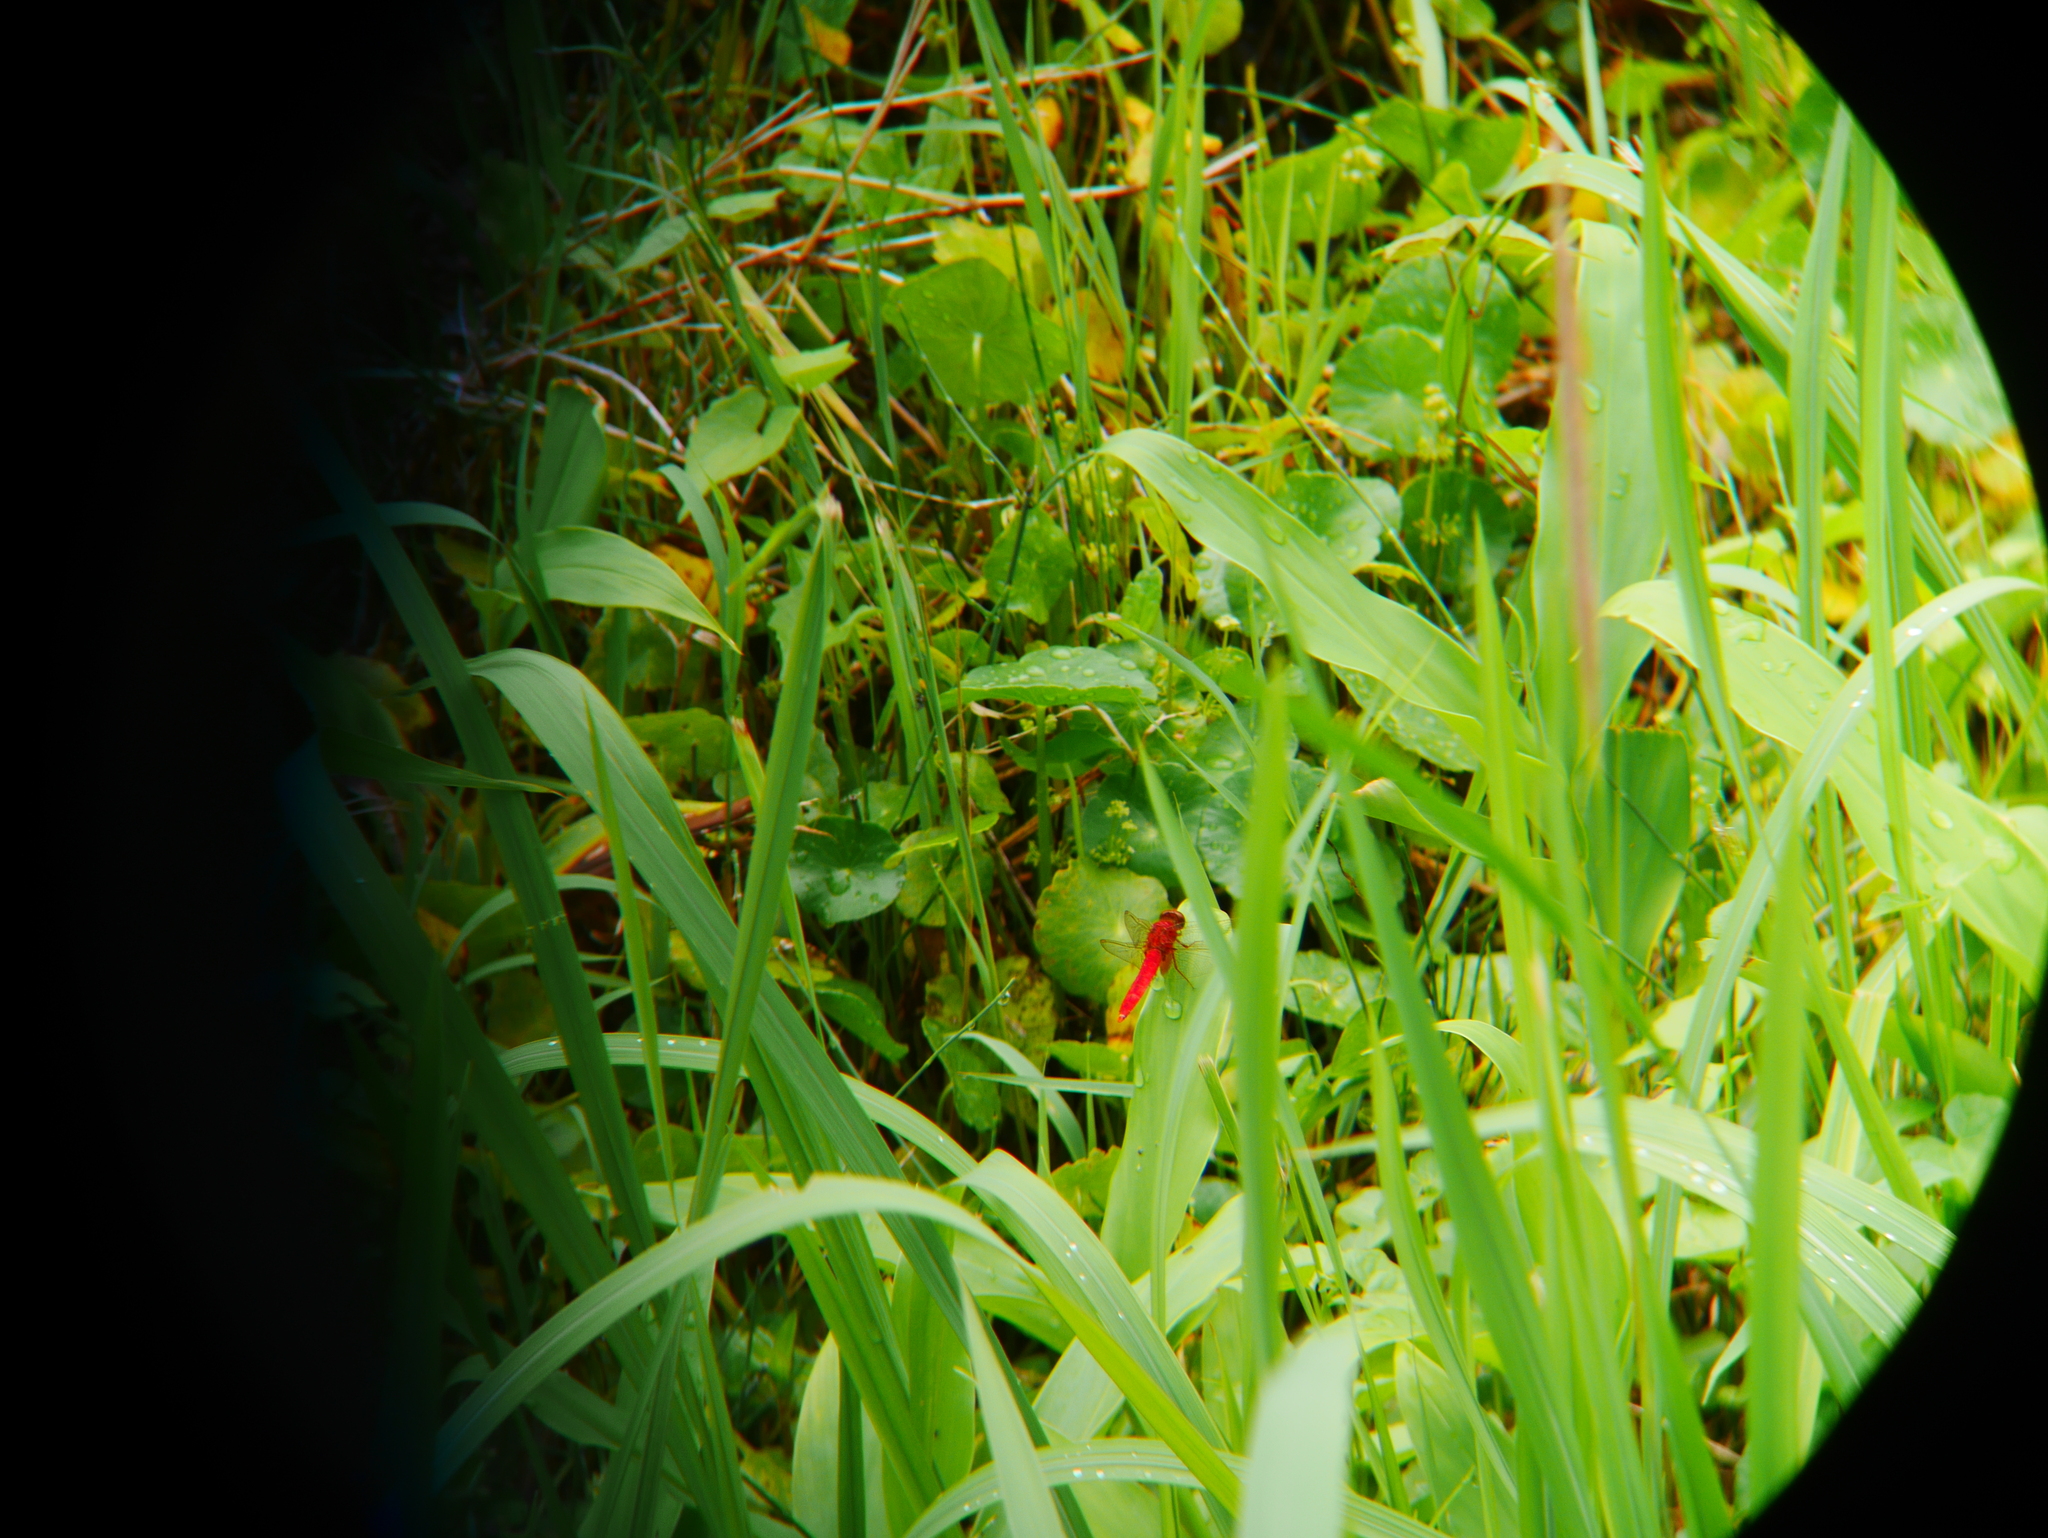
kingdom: Animalia
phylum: Arthropoda
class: Insecta
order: Odonata
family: Libellulidae
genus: Crocothemis
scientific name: Crocothemis servilia
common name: Scarlet skimmer
